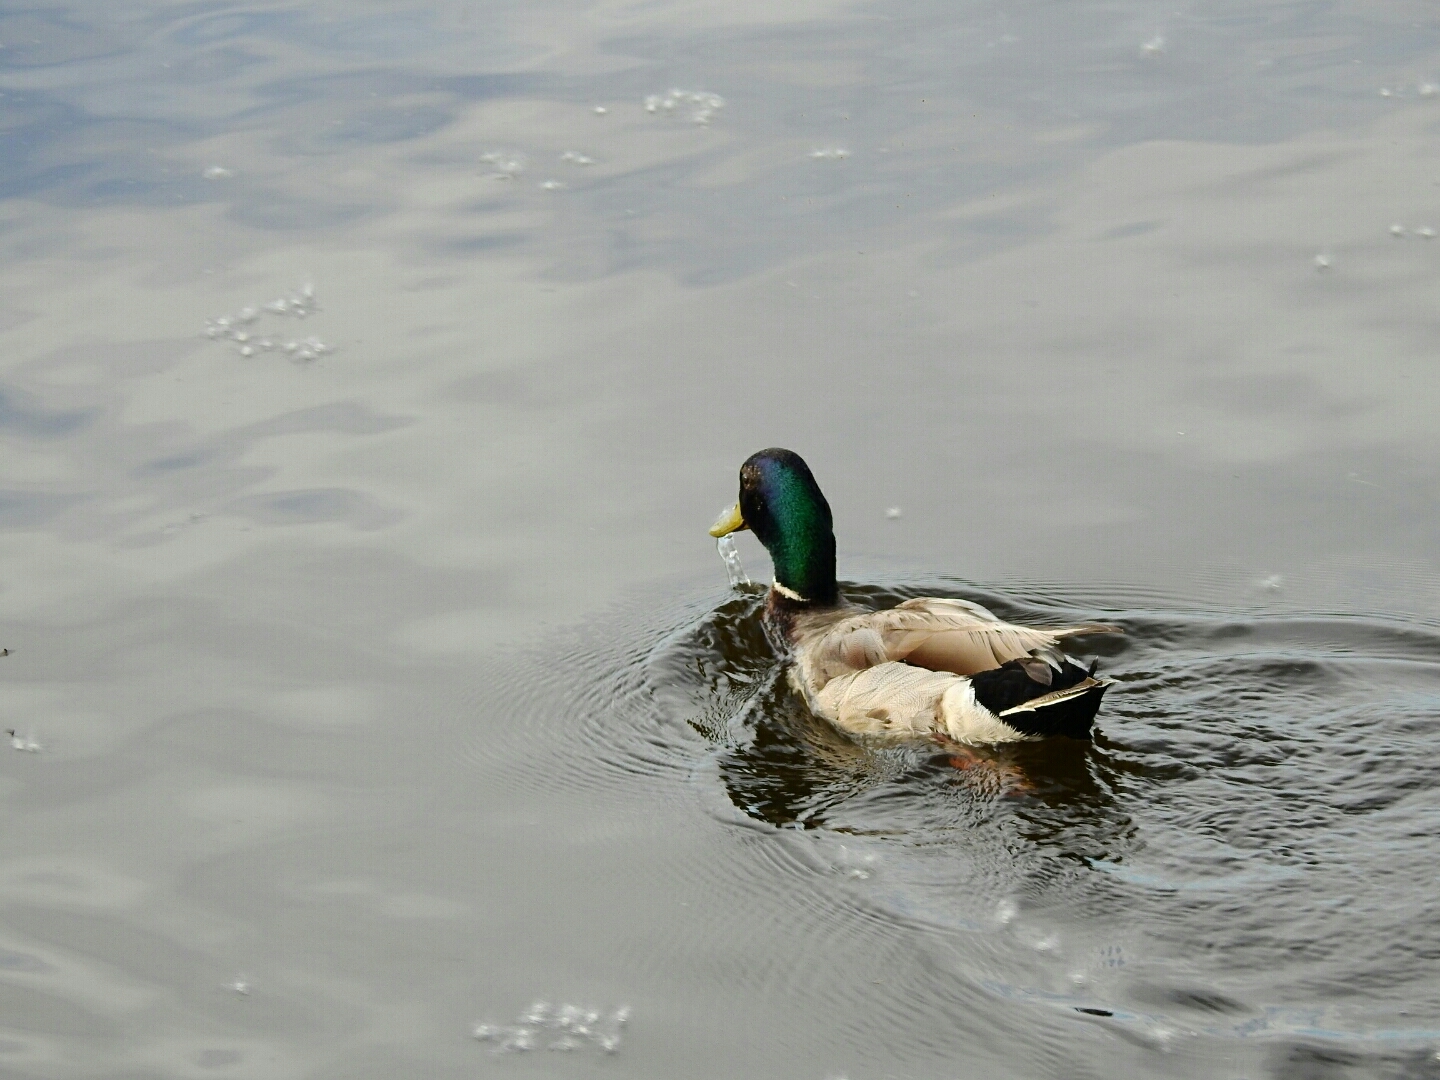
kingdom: Animalia
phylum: Chordata
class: Aves
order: Anseriformes
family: Anatidae
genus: Anas
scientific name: Anas platyrhynchos
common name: Mallard
